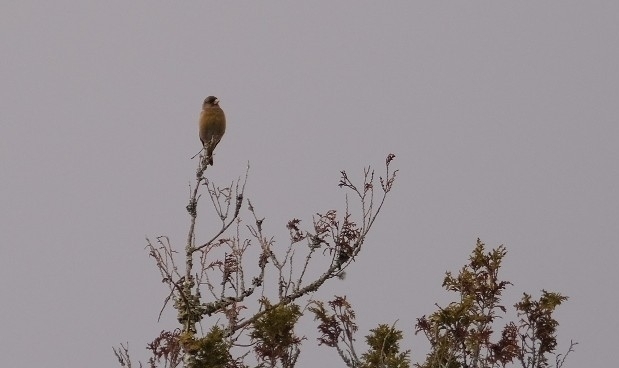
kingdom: Plantae
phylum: Tracheophyta
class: Liliopsida
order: Poales
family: Poaceae
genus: Chloris
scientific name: Chloris sinica
